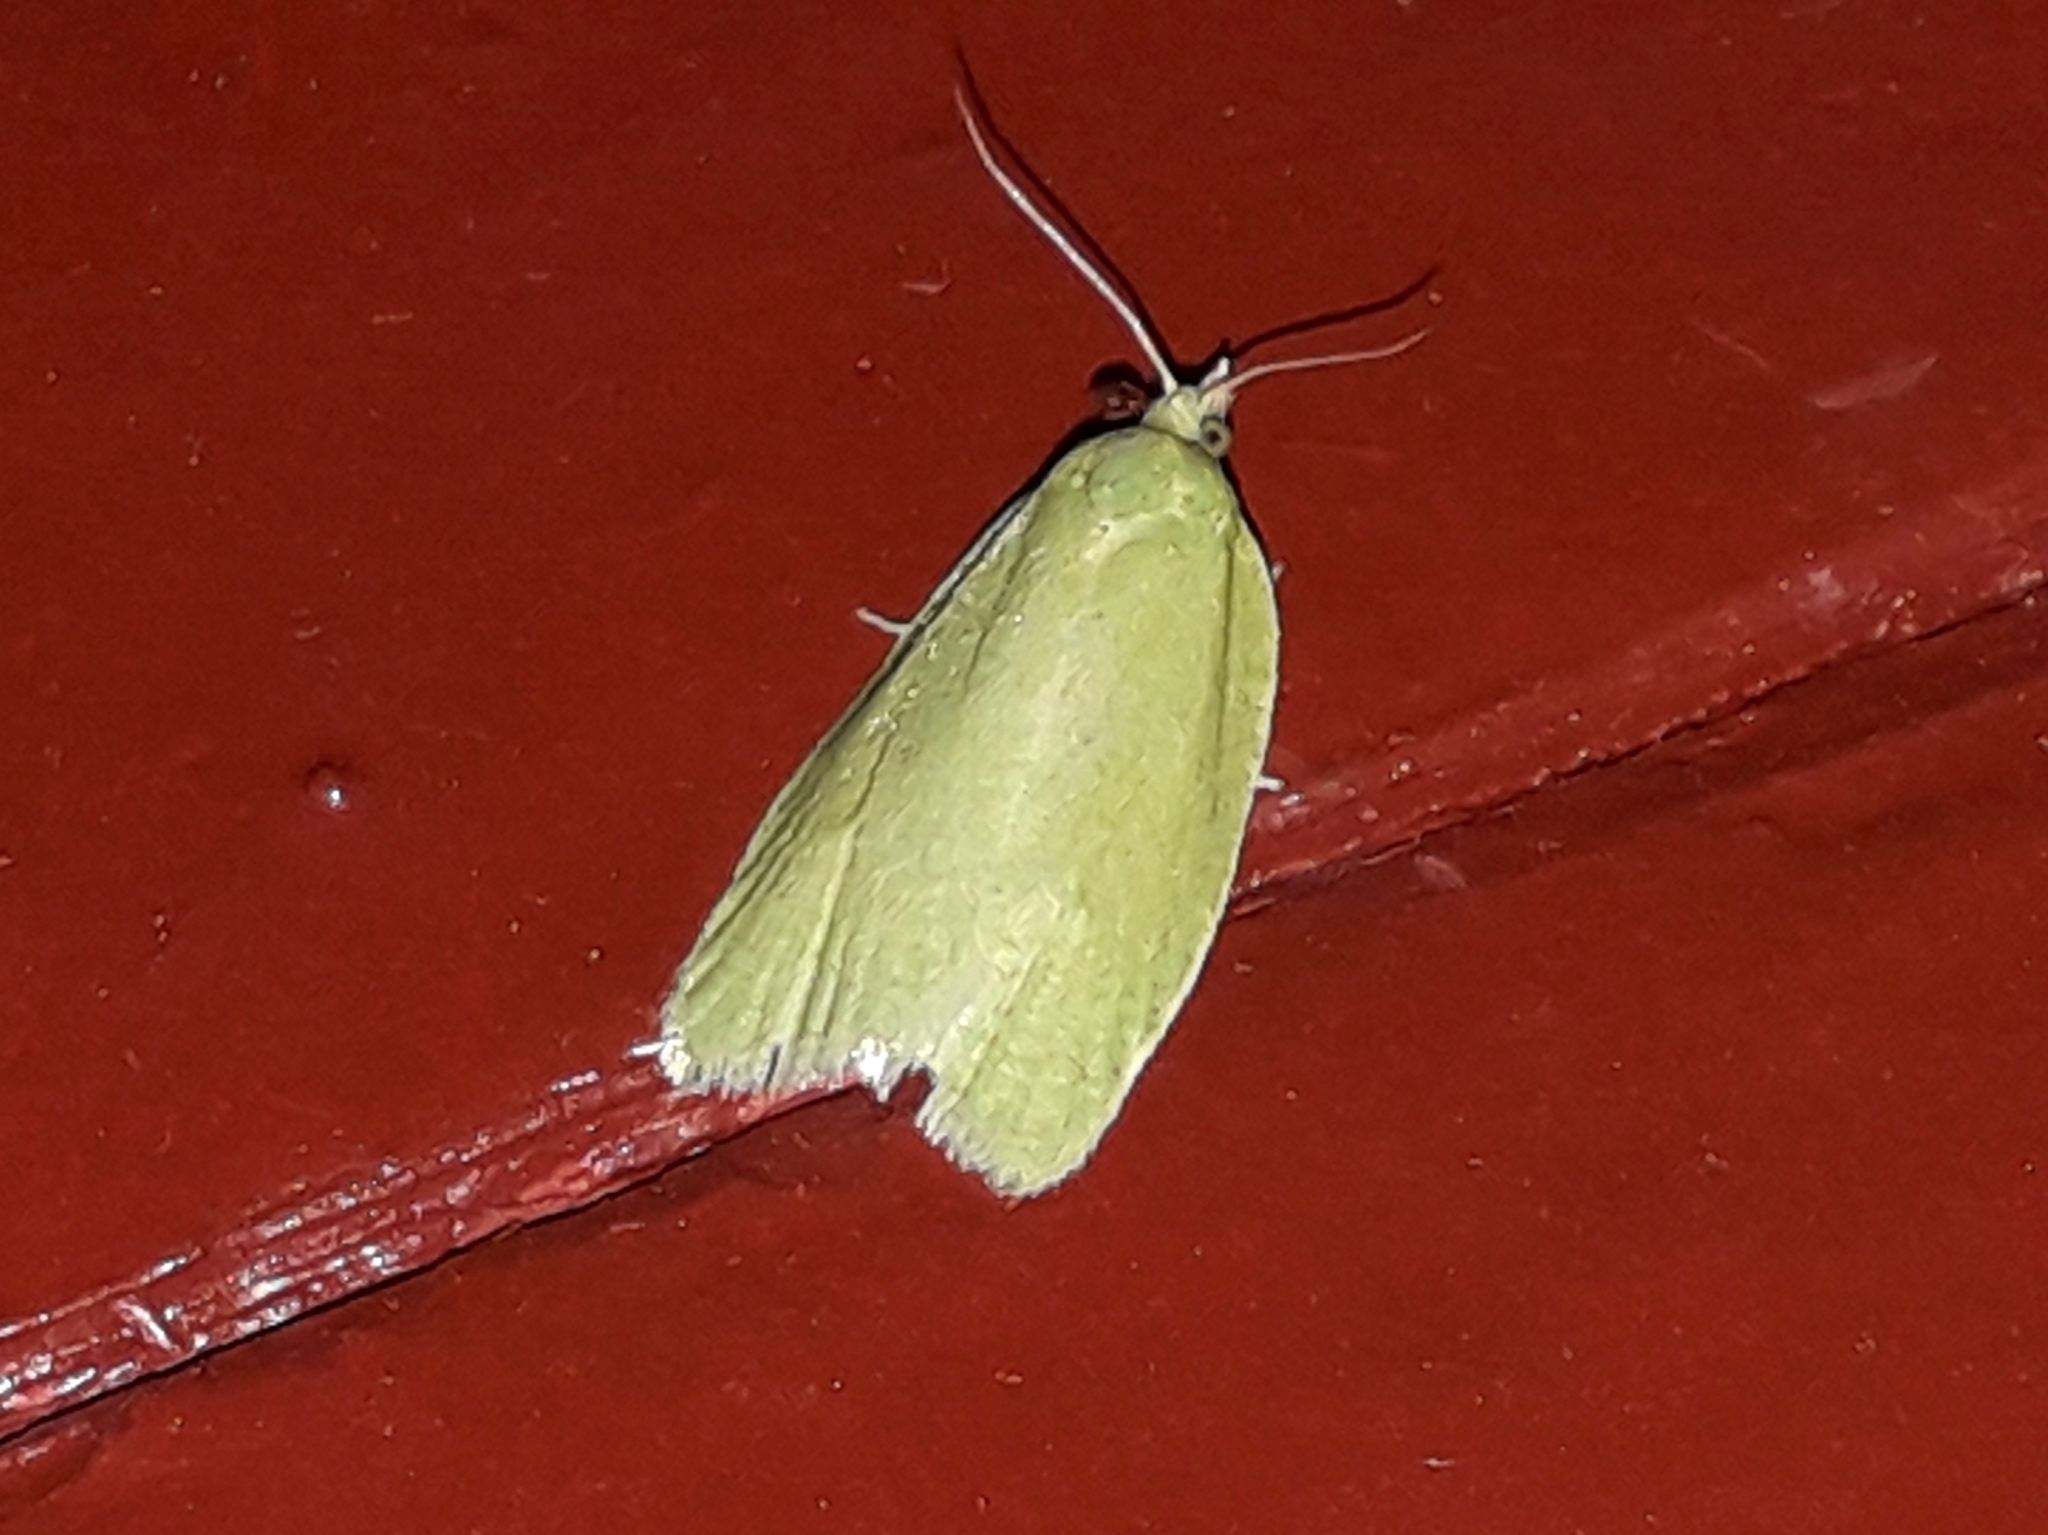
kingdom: Animalia
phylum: Arthropoda
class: Insecta
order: Lepidoptera
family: Tortricidae
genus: Tortrix
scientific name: Tortrix viridana
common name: Green oak tortrix
